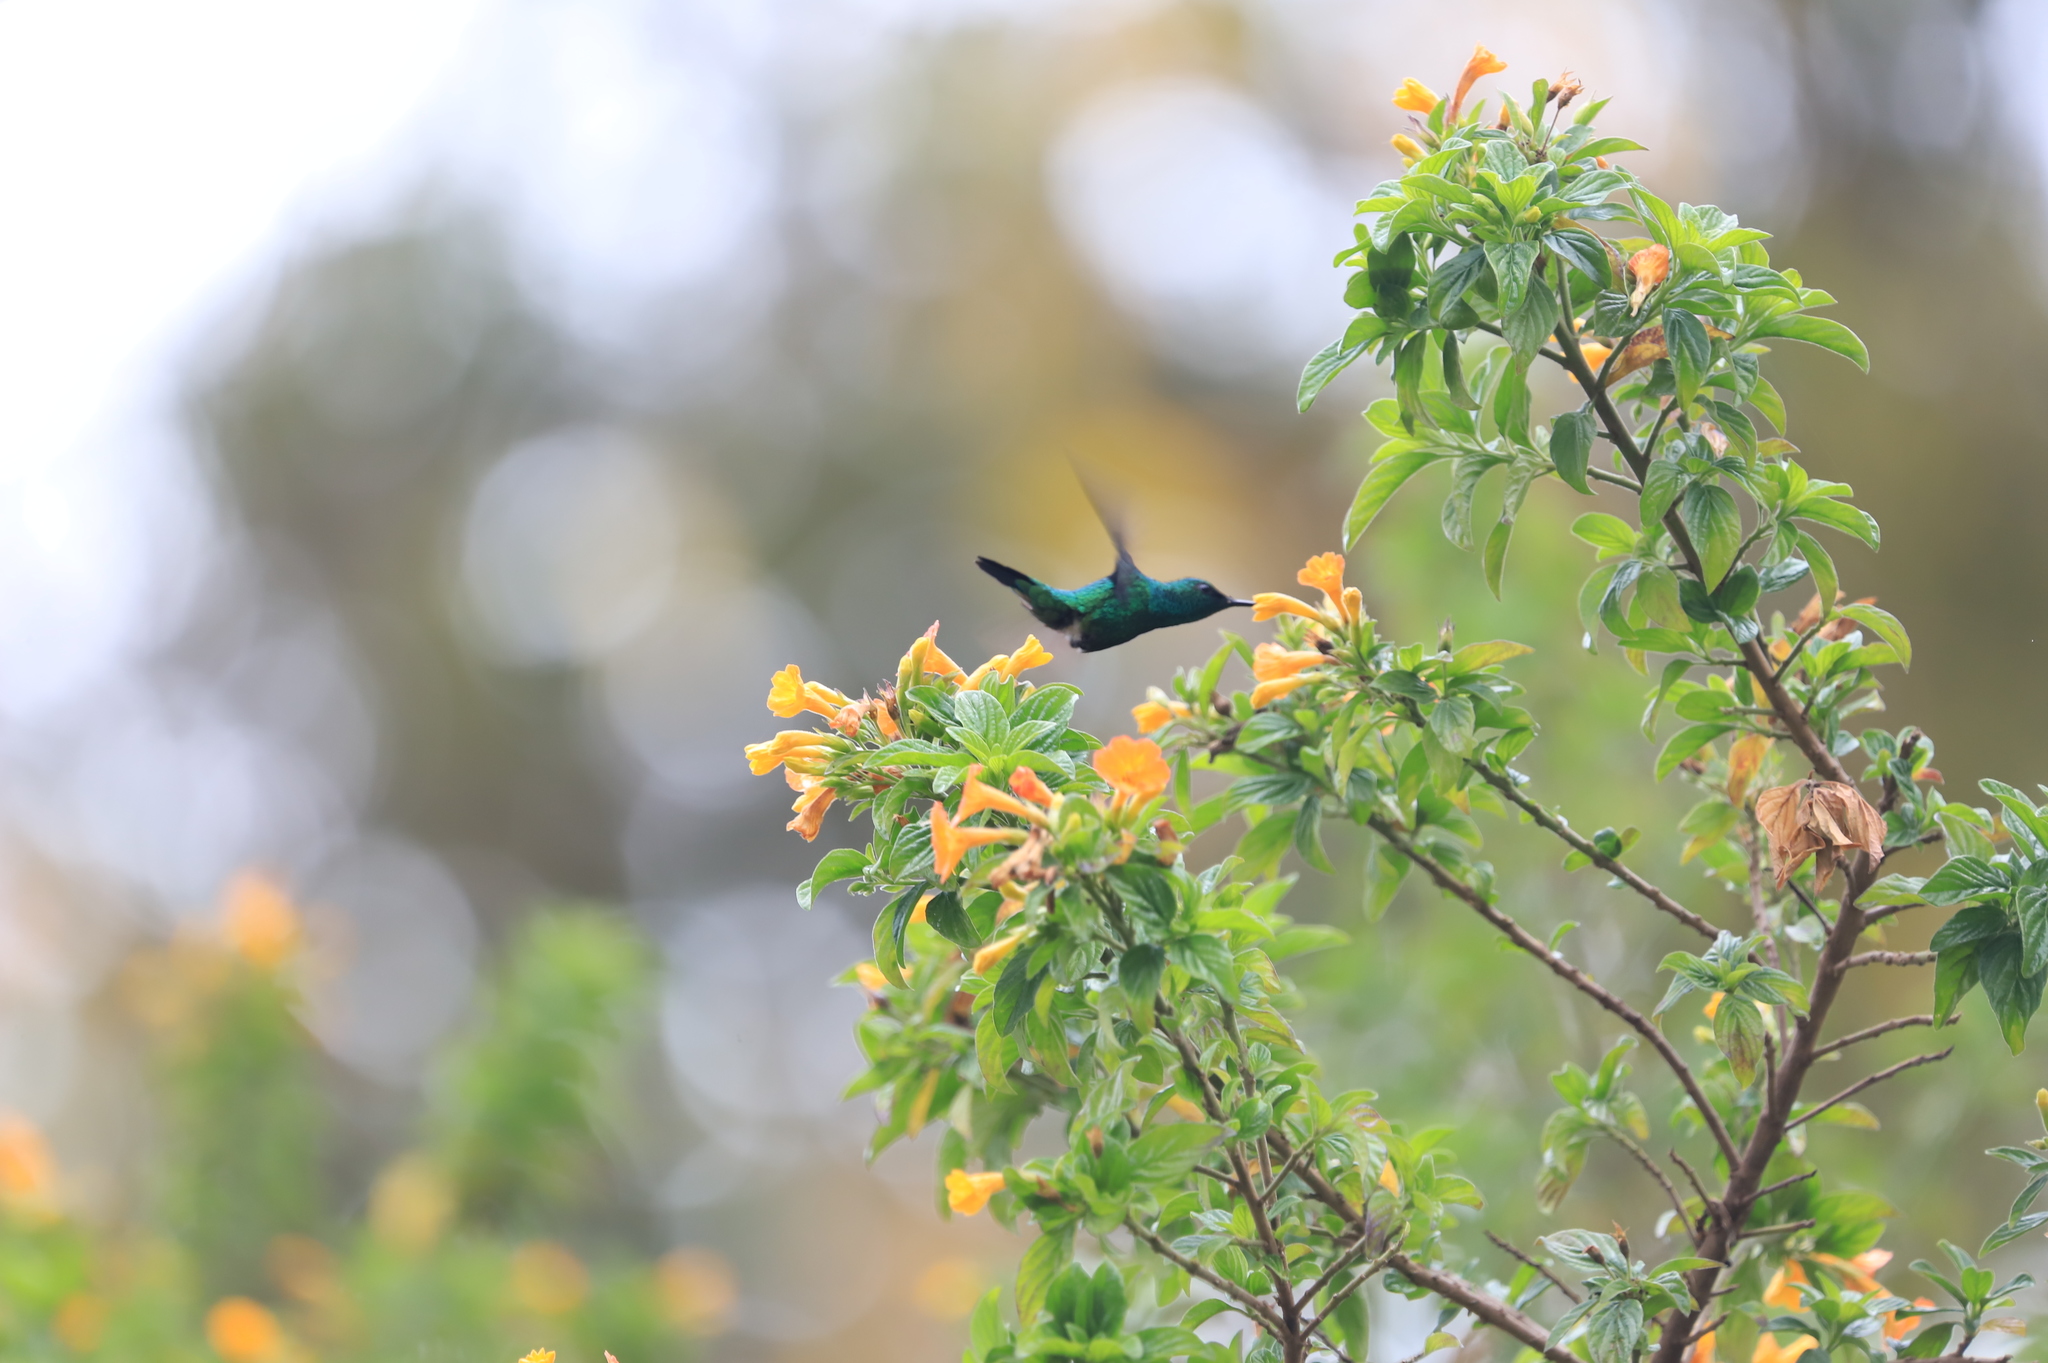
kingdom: Animalia
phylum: Chordata
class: Aves
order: Apodiformes
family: Trochilidae
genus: Colibri
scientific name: Colibri coruscans
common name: Sparkling violetear
